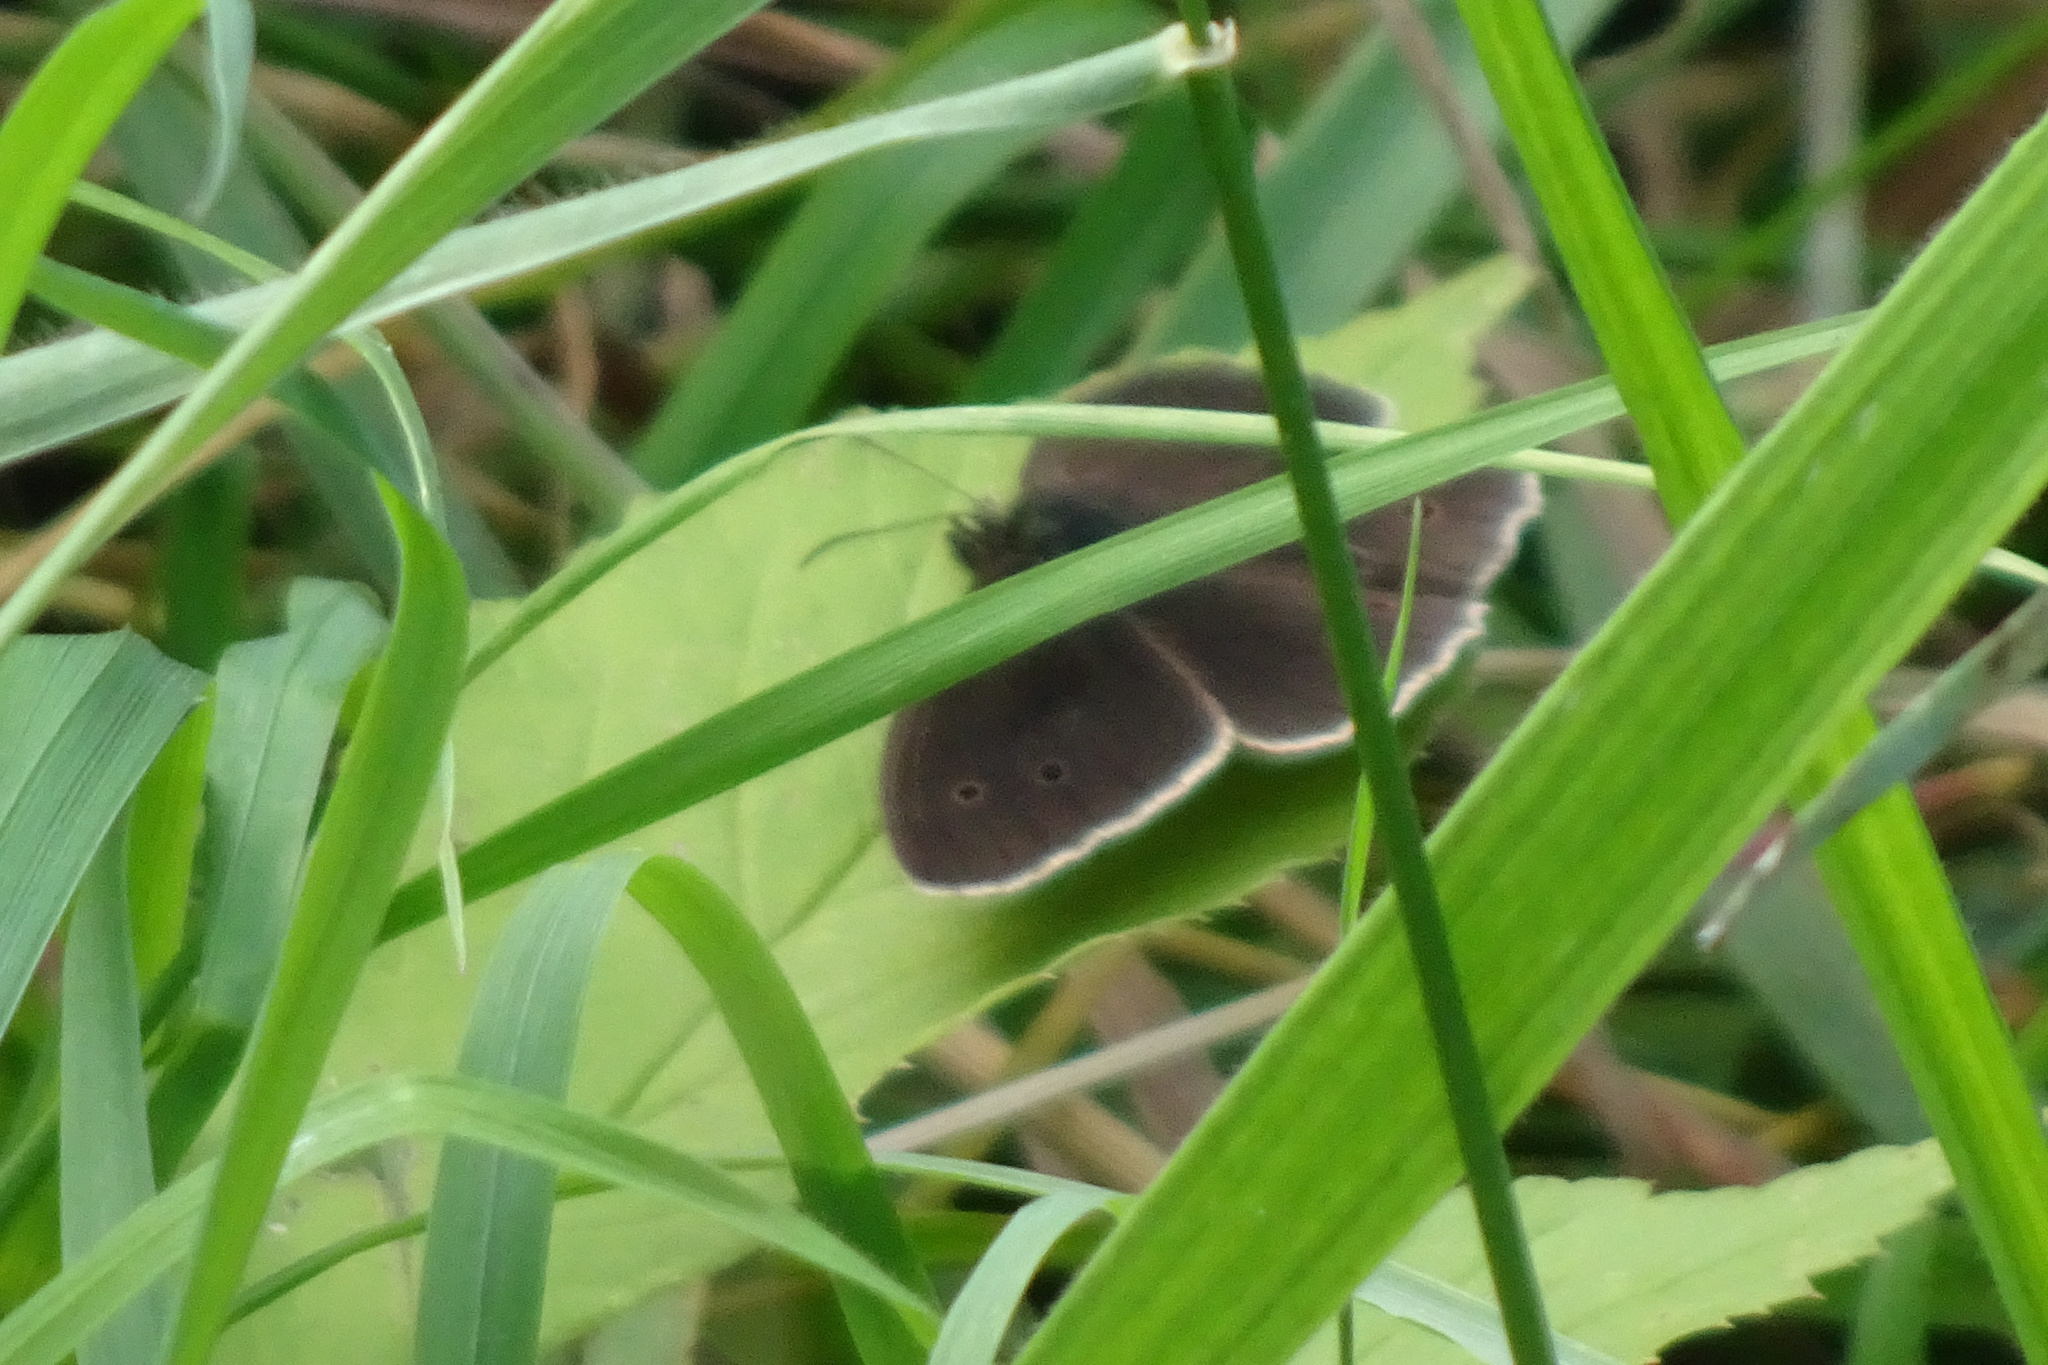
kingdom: Animalia
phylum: Arthropoda
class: Insecta
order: Lepidoptera
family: Nymphalidae
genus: Aphantopus
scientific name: Aphantopus hyperantus
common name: Ringlet
